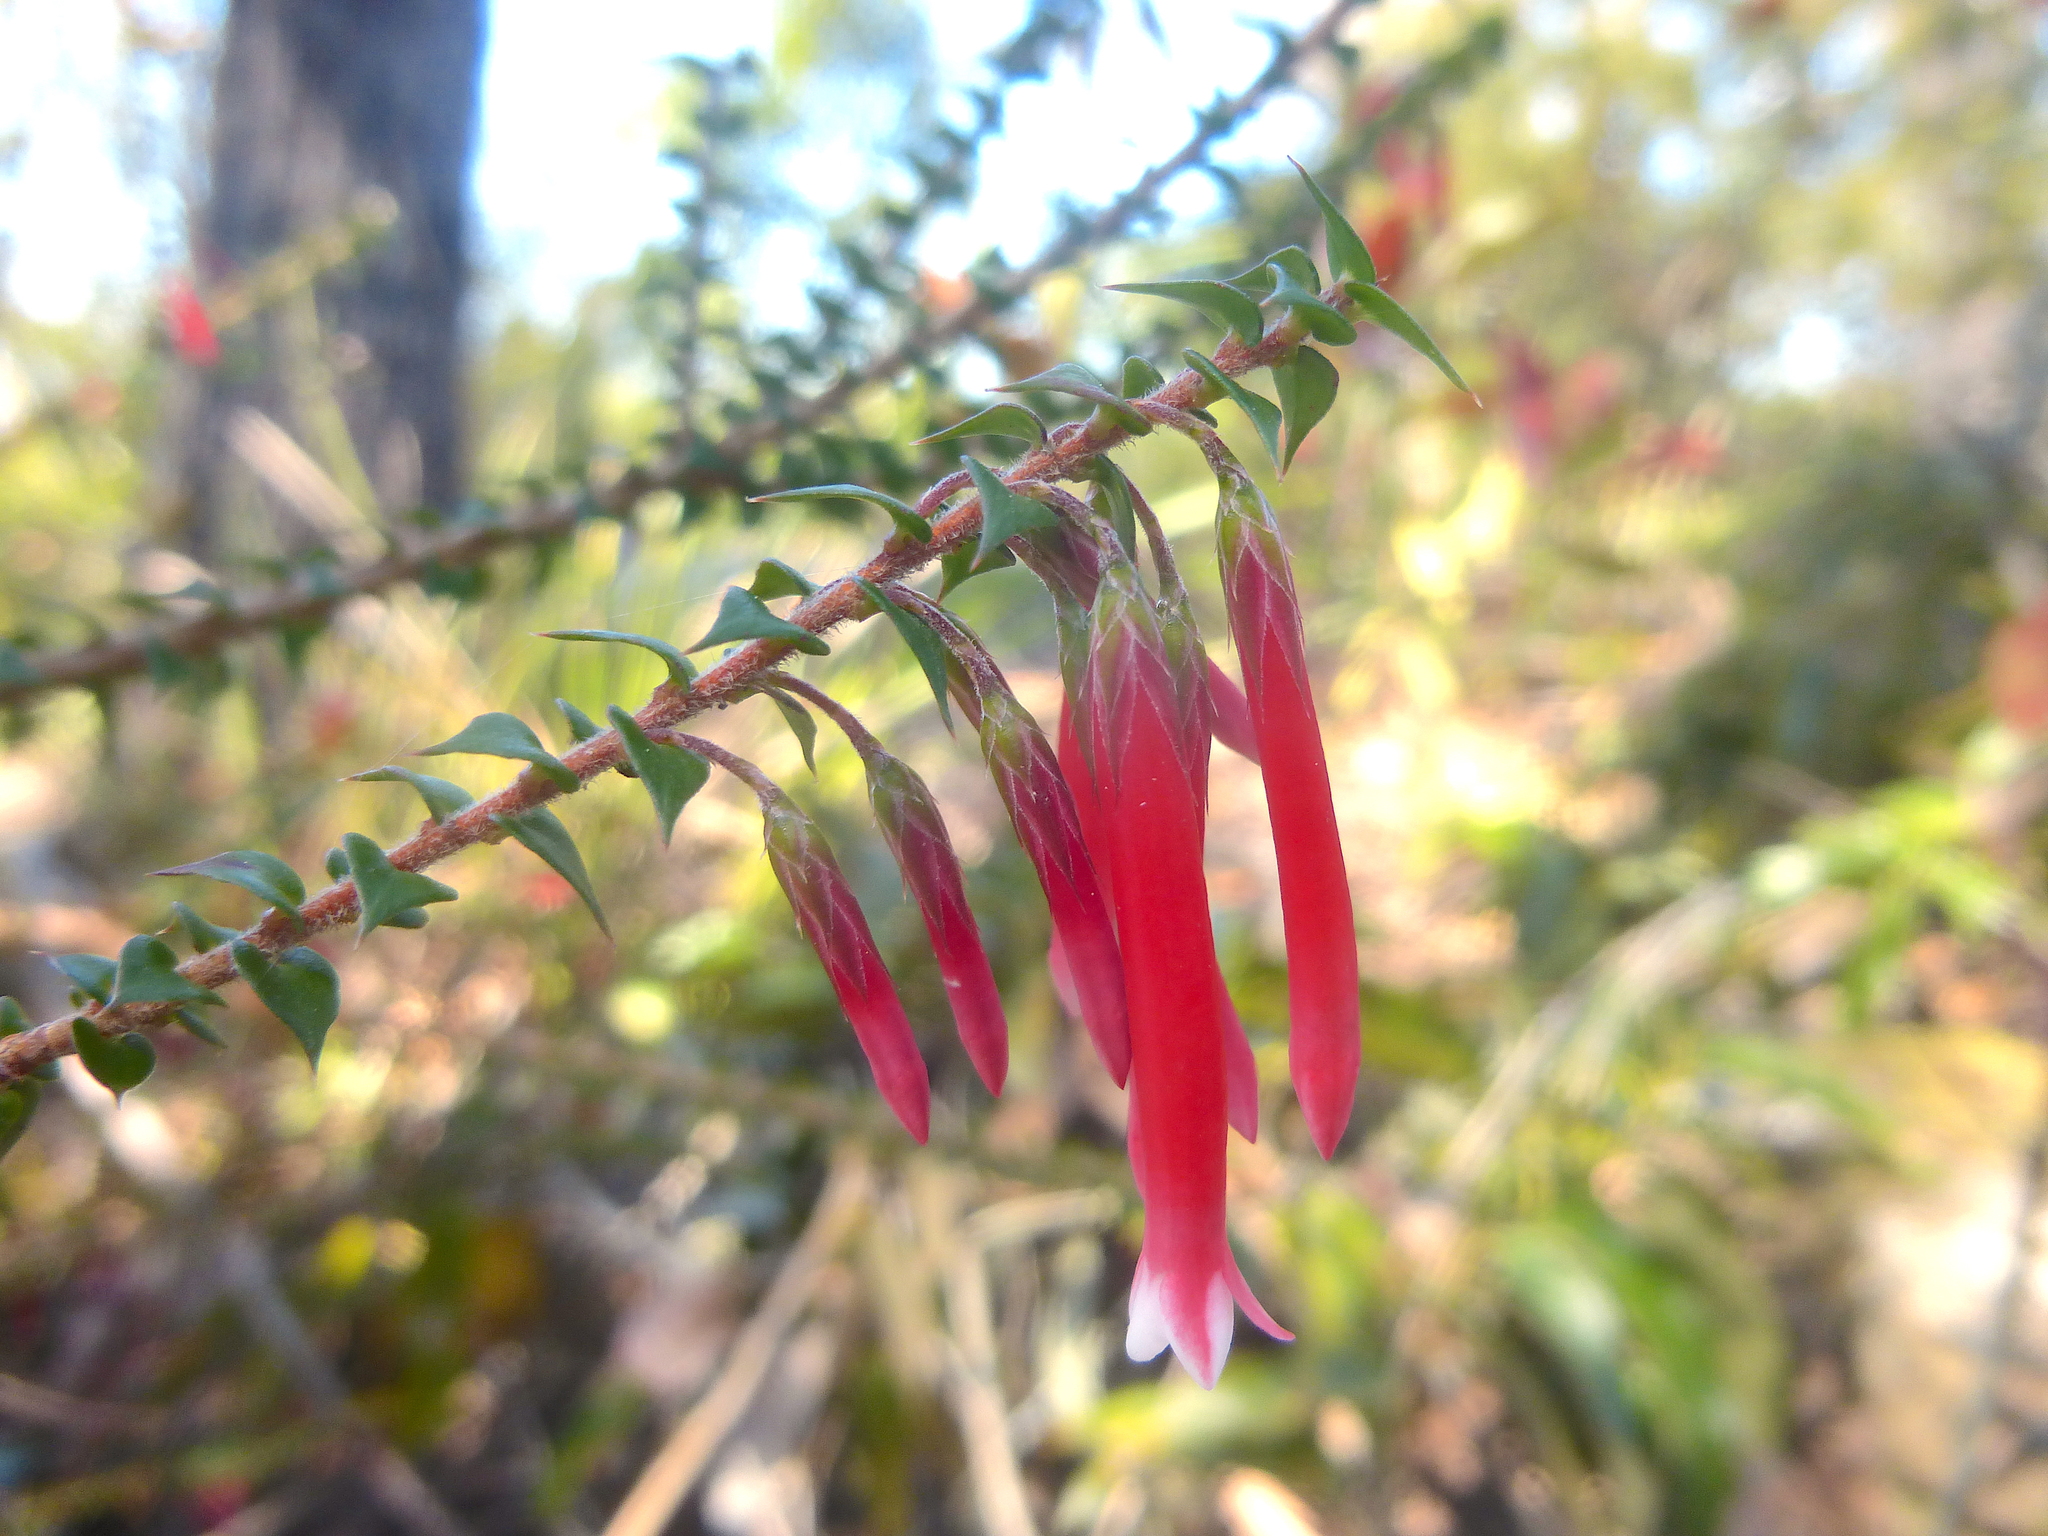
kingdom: Plantae
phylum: Tracheophyta
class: Magnoliopsida
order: Ericales
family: Ericaceae
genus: Epacris
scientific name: Epacris longiflora
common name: Fuchsia-heath
